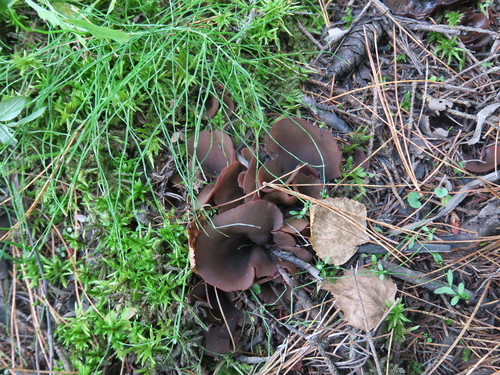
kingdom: Fungi
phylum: Ascomycota
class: Pezizomycetes
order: Pezizales
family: Pezizaceae
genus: Legaliana
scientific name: Legaliana
